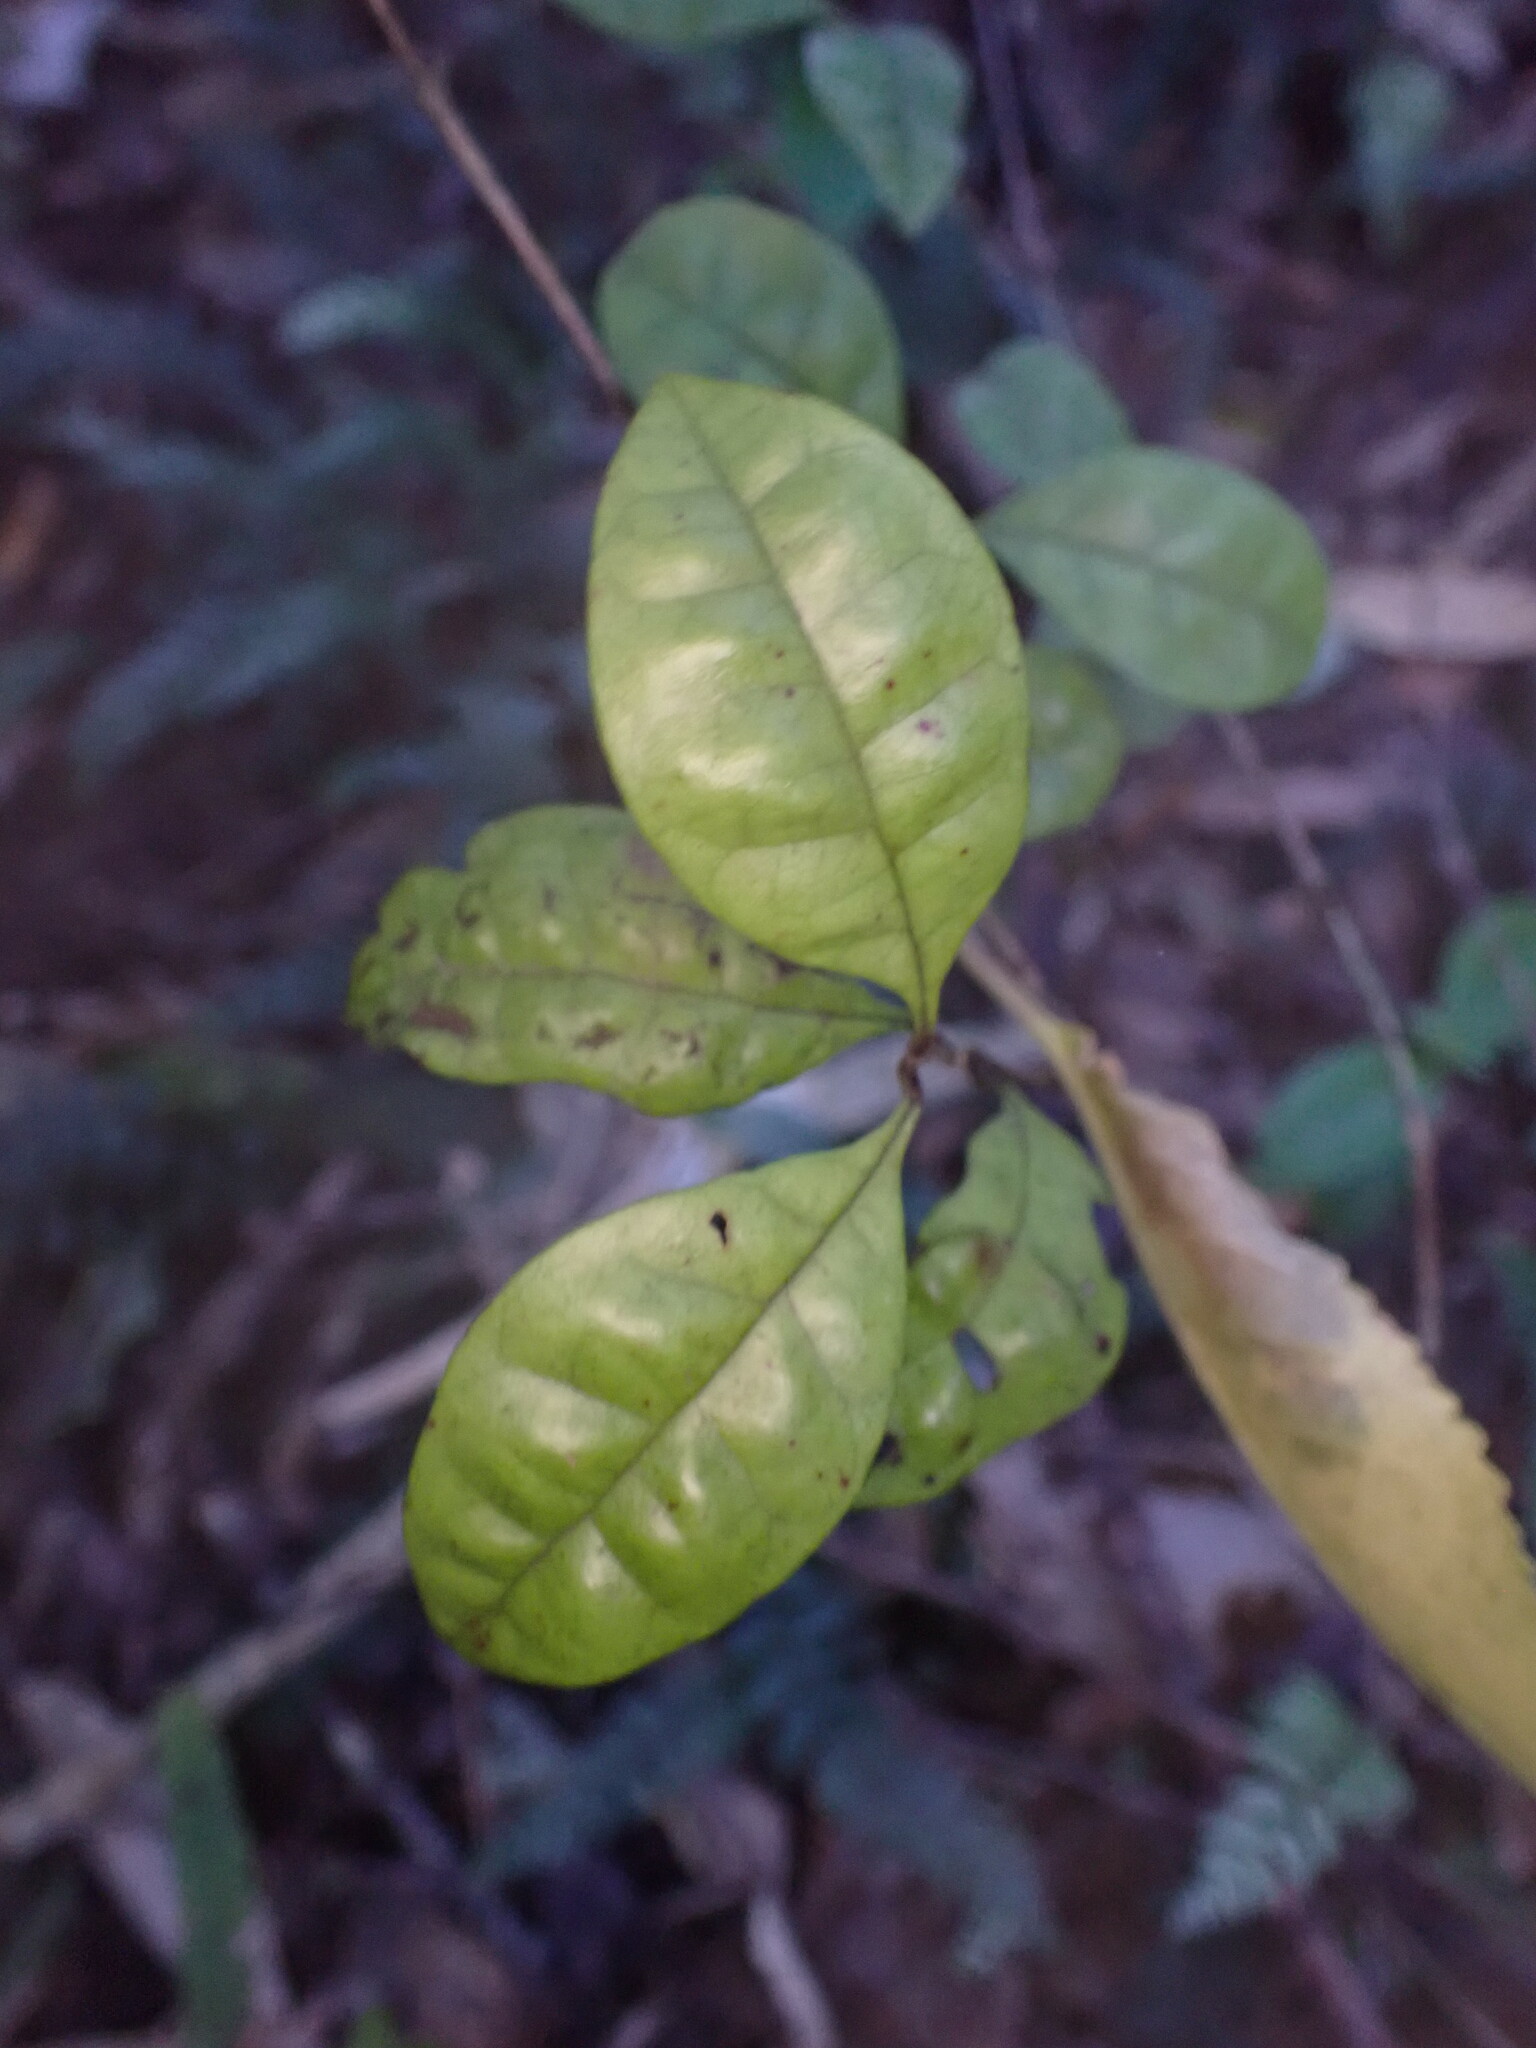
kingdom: Plantae
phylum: Tracheophyta
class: Magnoliopsida
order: Myrtales
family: Myrtaceae
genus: Lophomyrtus
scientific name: Lophomyrtus bullata
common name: Rama rama
